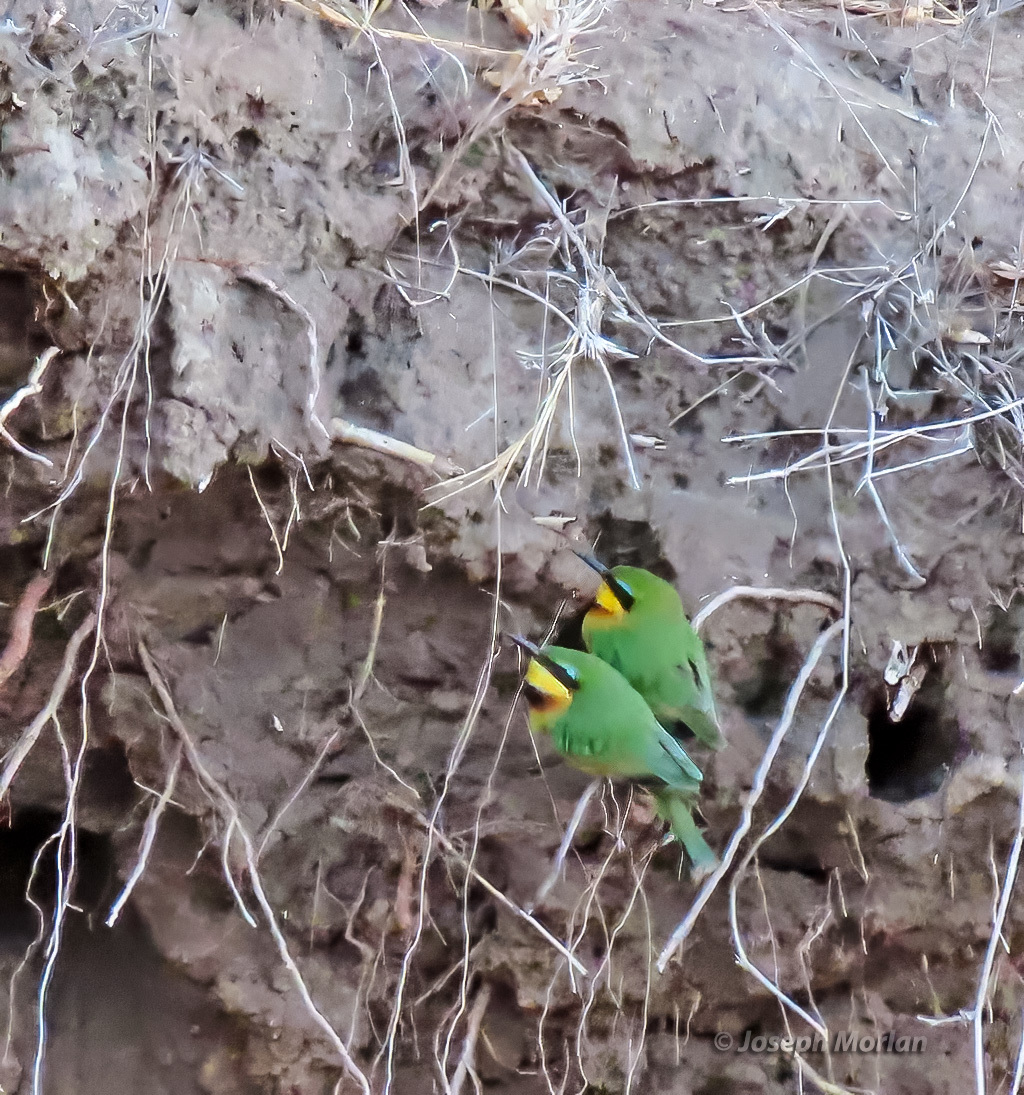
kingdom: Animalia
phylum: Chordata
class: Aves
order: Coraciiformes
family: Meropidae
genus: Merops
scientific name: Merops pusillus
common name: Little bee-eater
